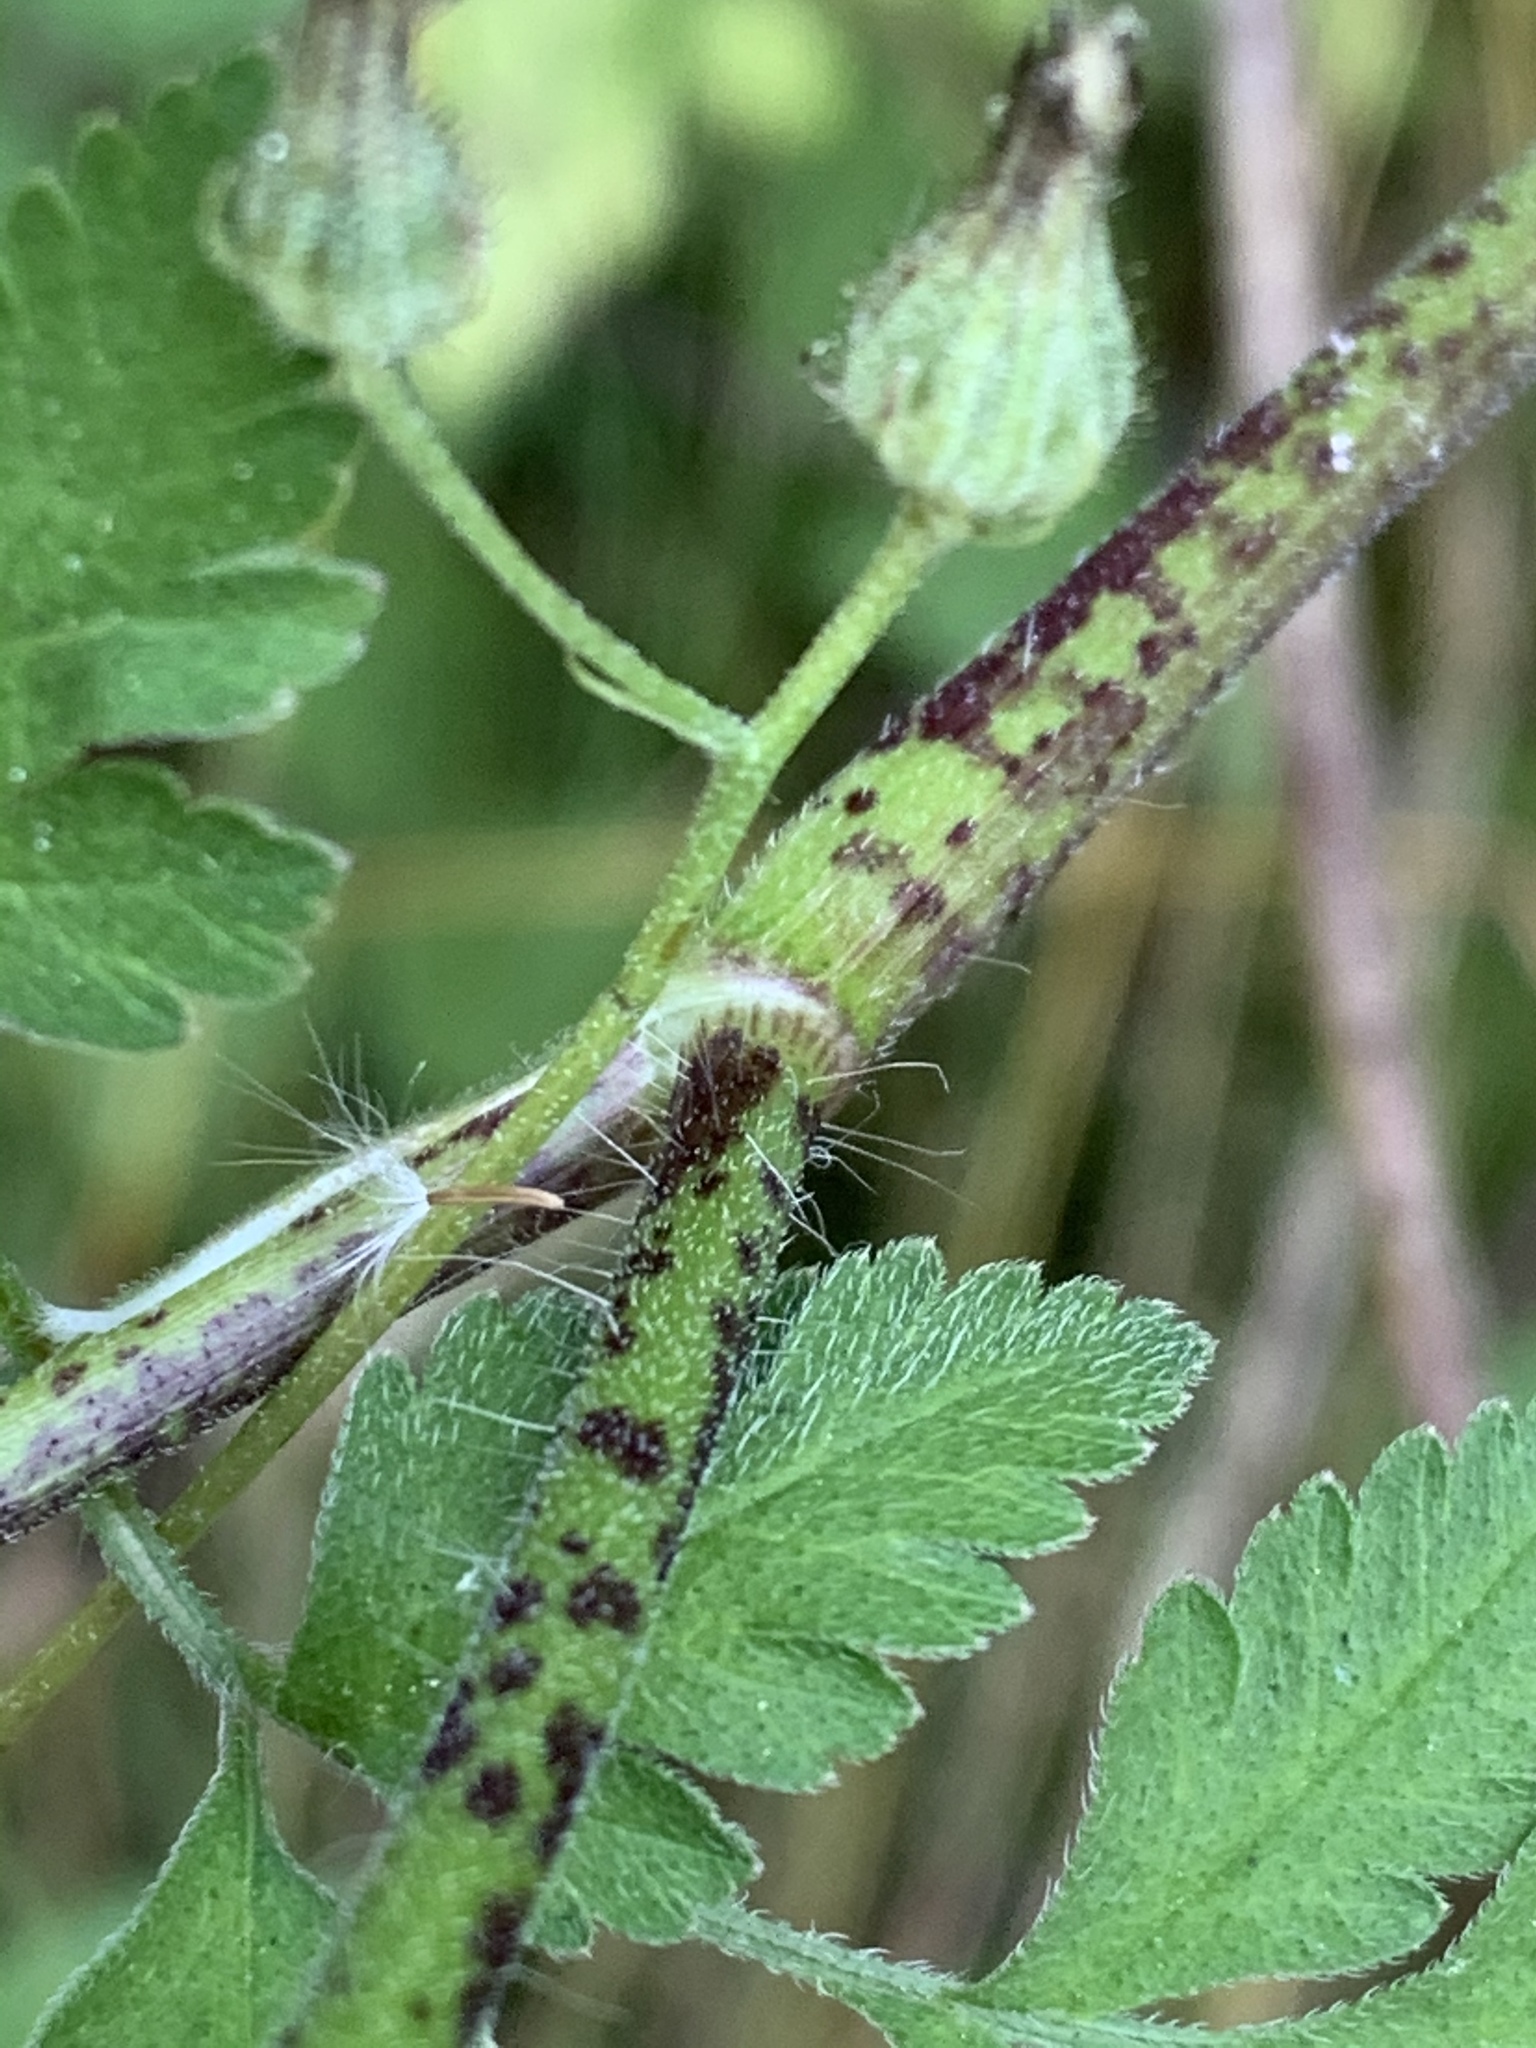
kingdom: Plantae
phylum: Tracheophyta
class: Magnoliopsida
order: Apiales
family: Apiaceae
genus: Chaerophyllum
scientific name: Chaerophyllum temulum
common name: Rough chervil
